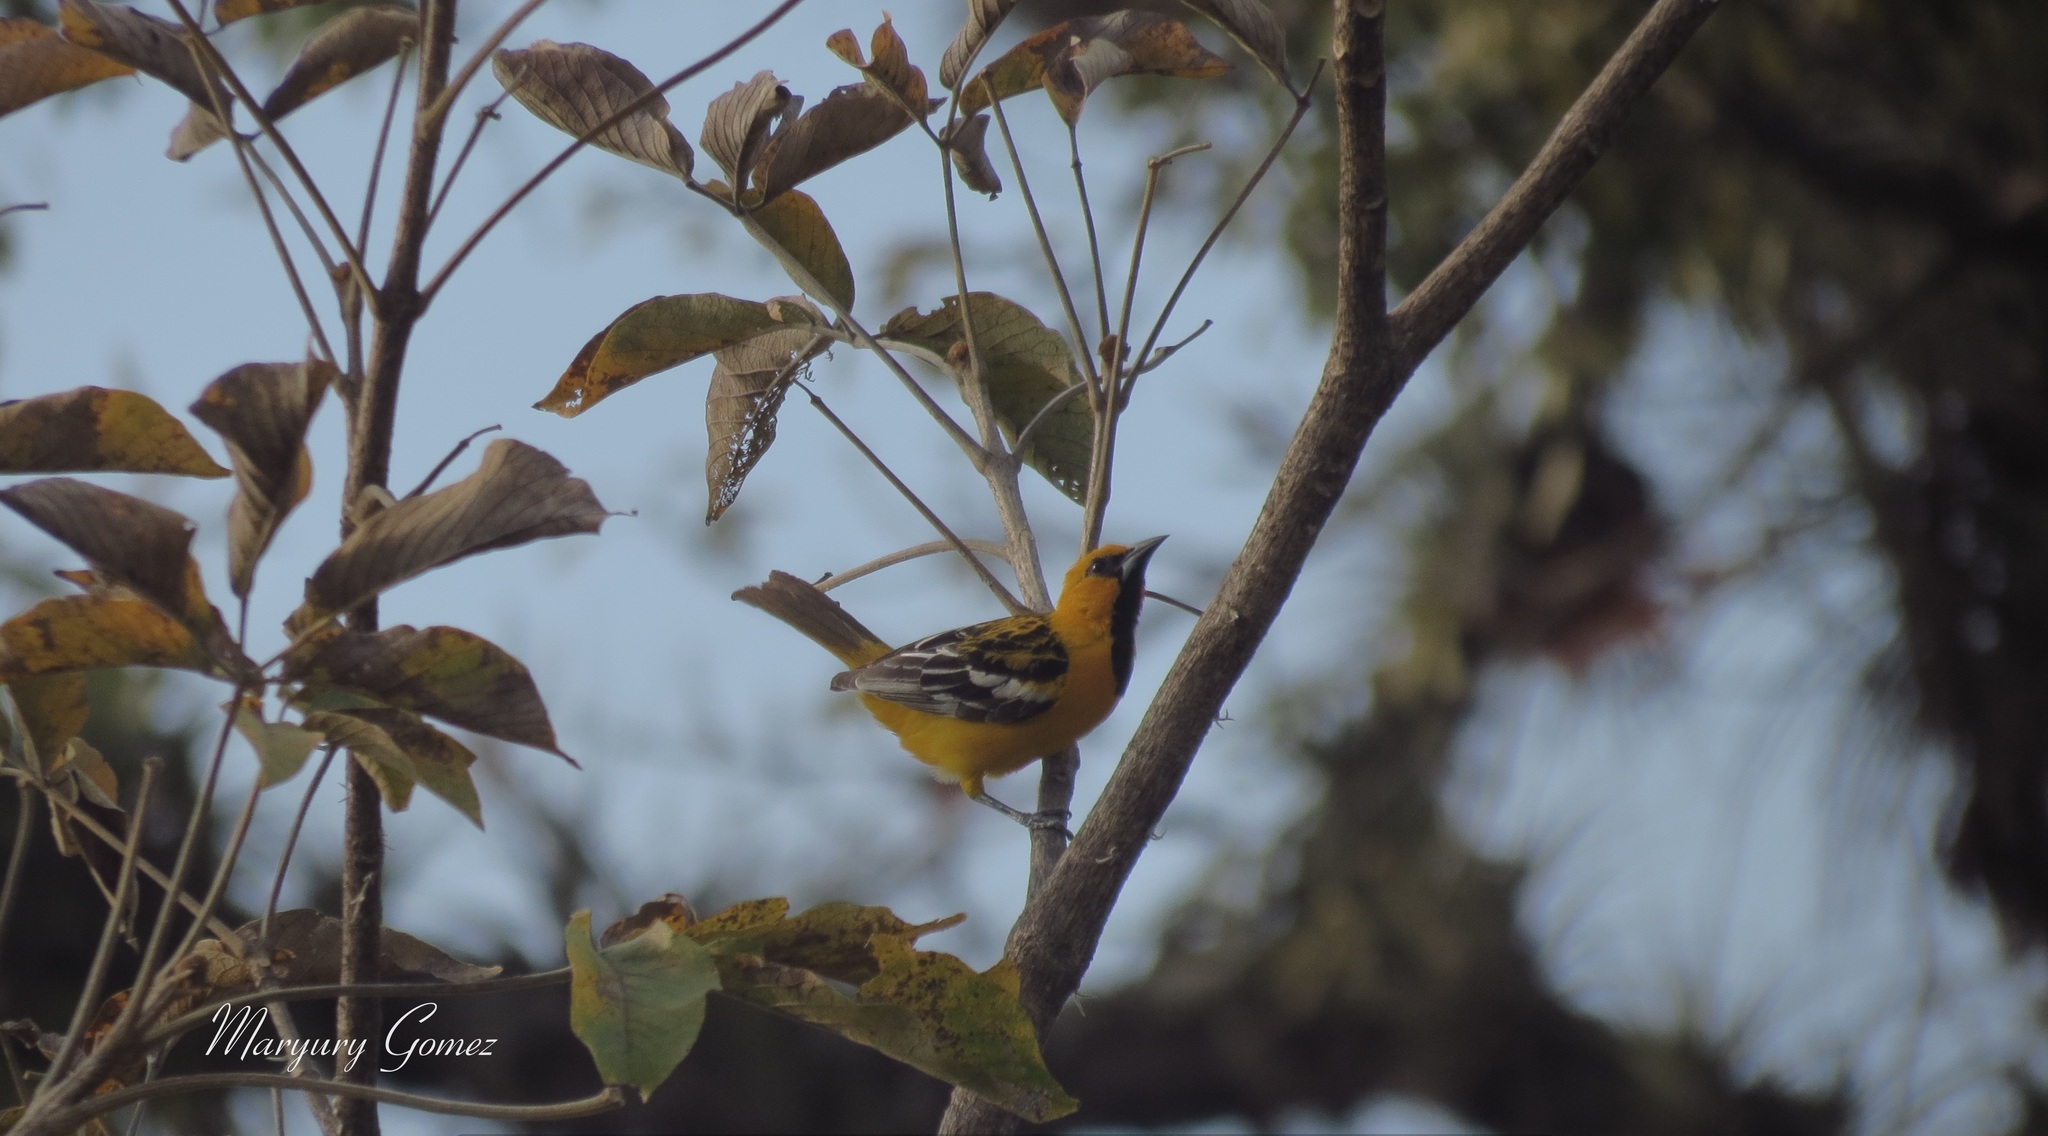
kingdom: Animalia
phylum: Chordata
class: Aves
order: Passeriformes
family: Icteridae
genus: Icterus
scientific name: Icterus pustulatus
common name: Streak-backed oriole
